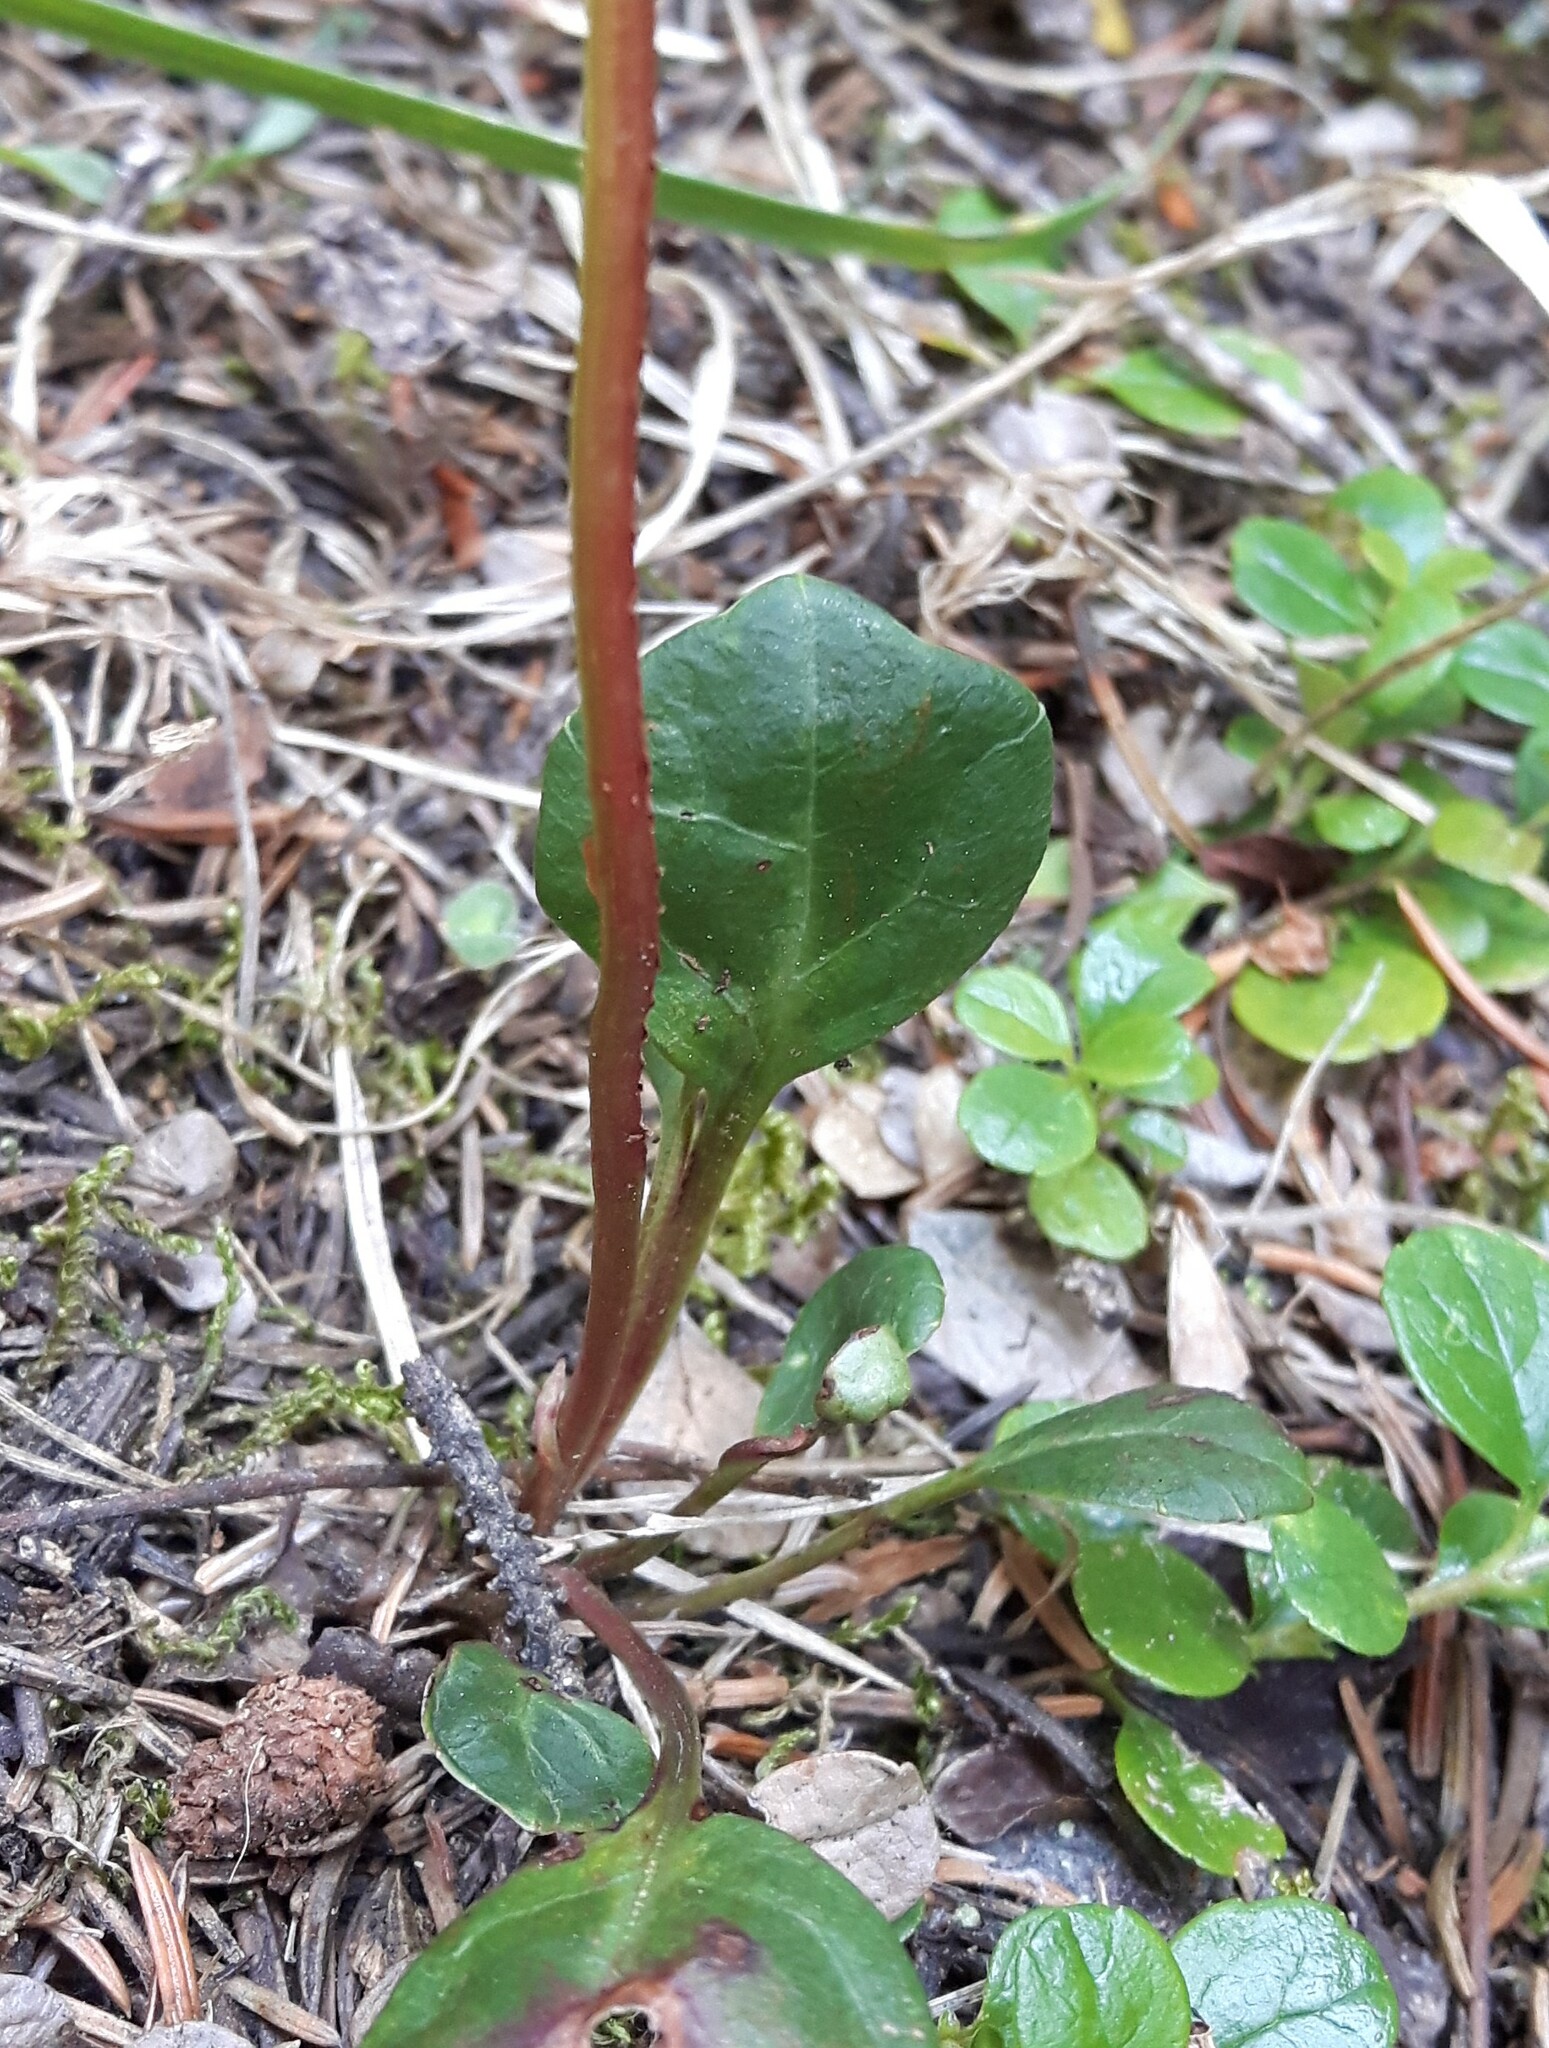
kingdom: Plantae
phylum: Tracheophyta
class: Magnoliopsida
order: Ericales
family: Ericaceae
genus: Pyrola
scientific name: Pyrola chlorantha
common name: Green wintergreen
